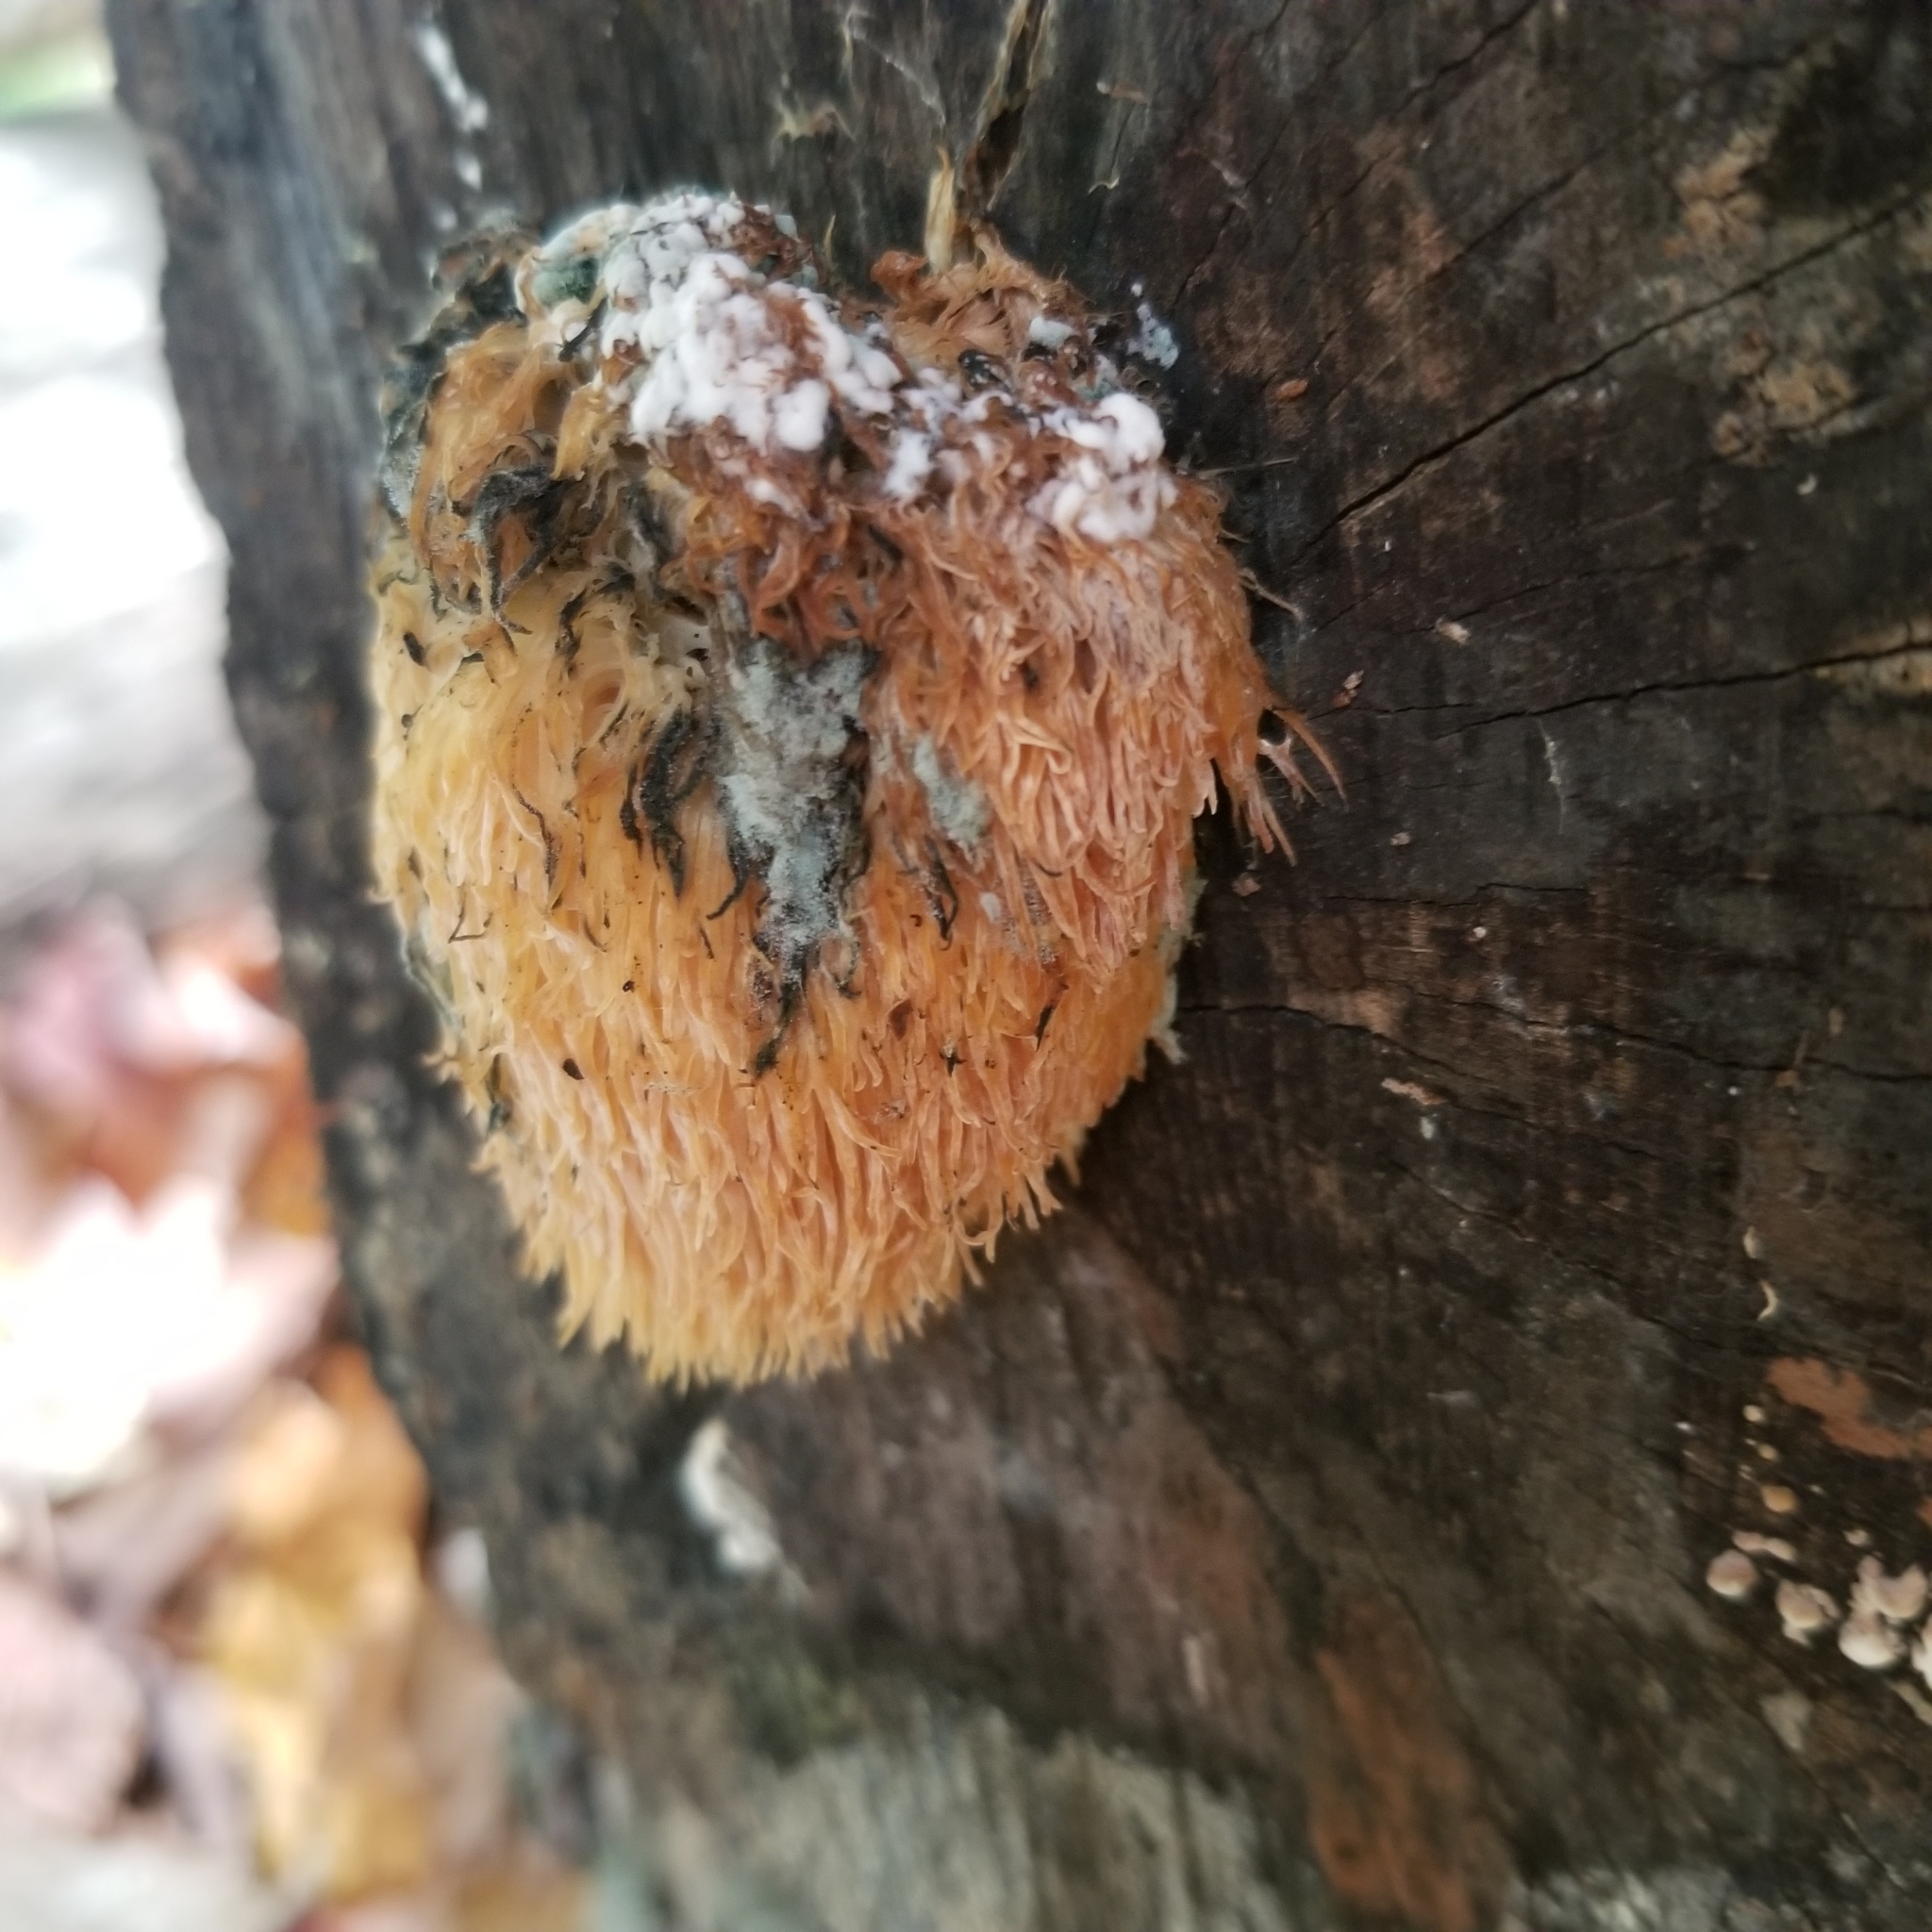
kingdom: Fungi
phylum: Basidiomycota
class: Agaricomycetes
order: Russulales
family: Hericiaceae
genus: Hericium
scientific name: Hericium erinaceus
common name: Bearded tooth
